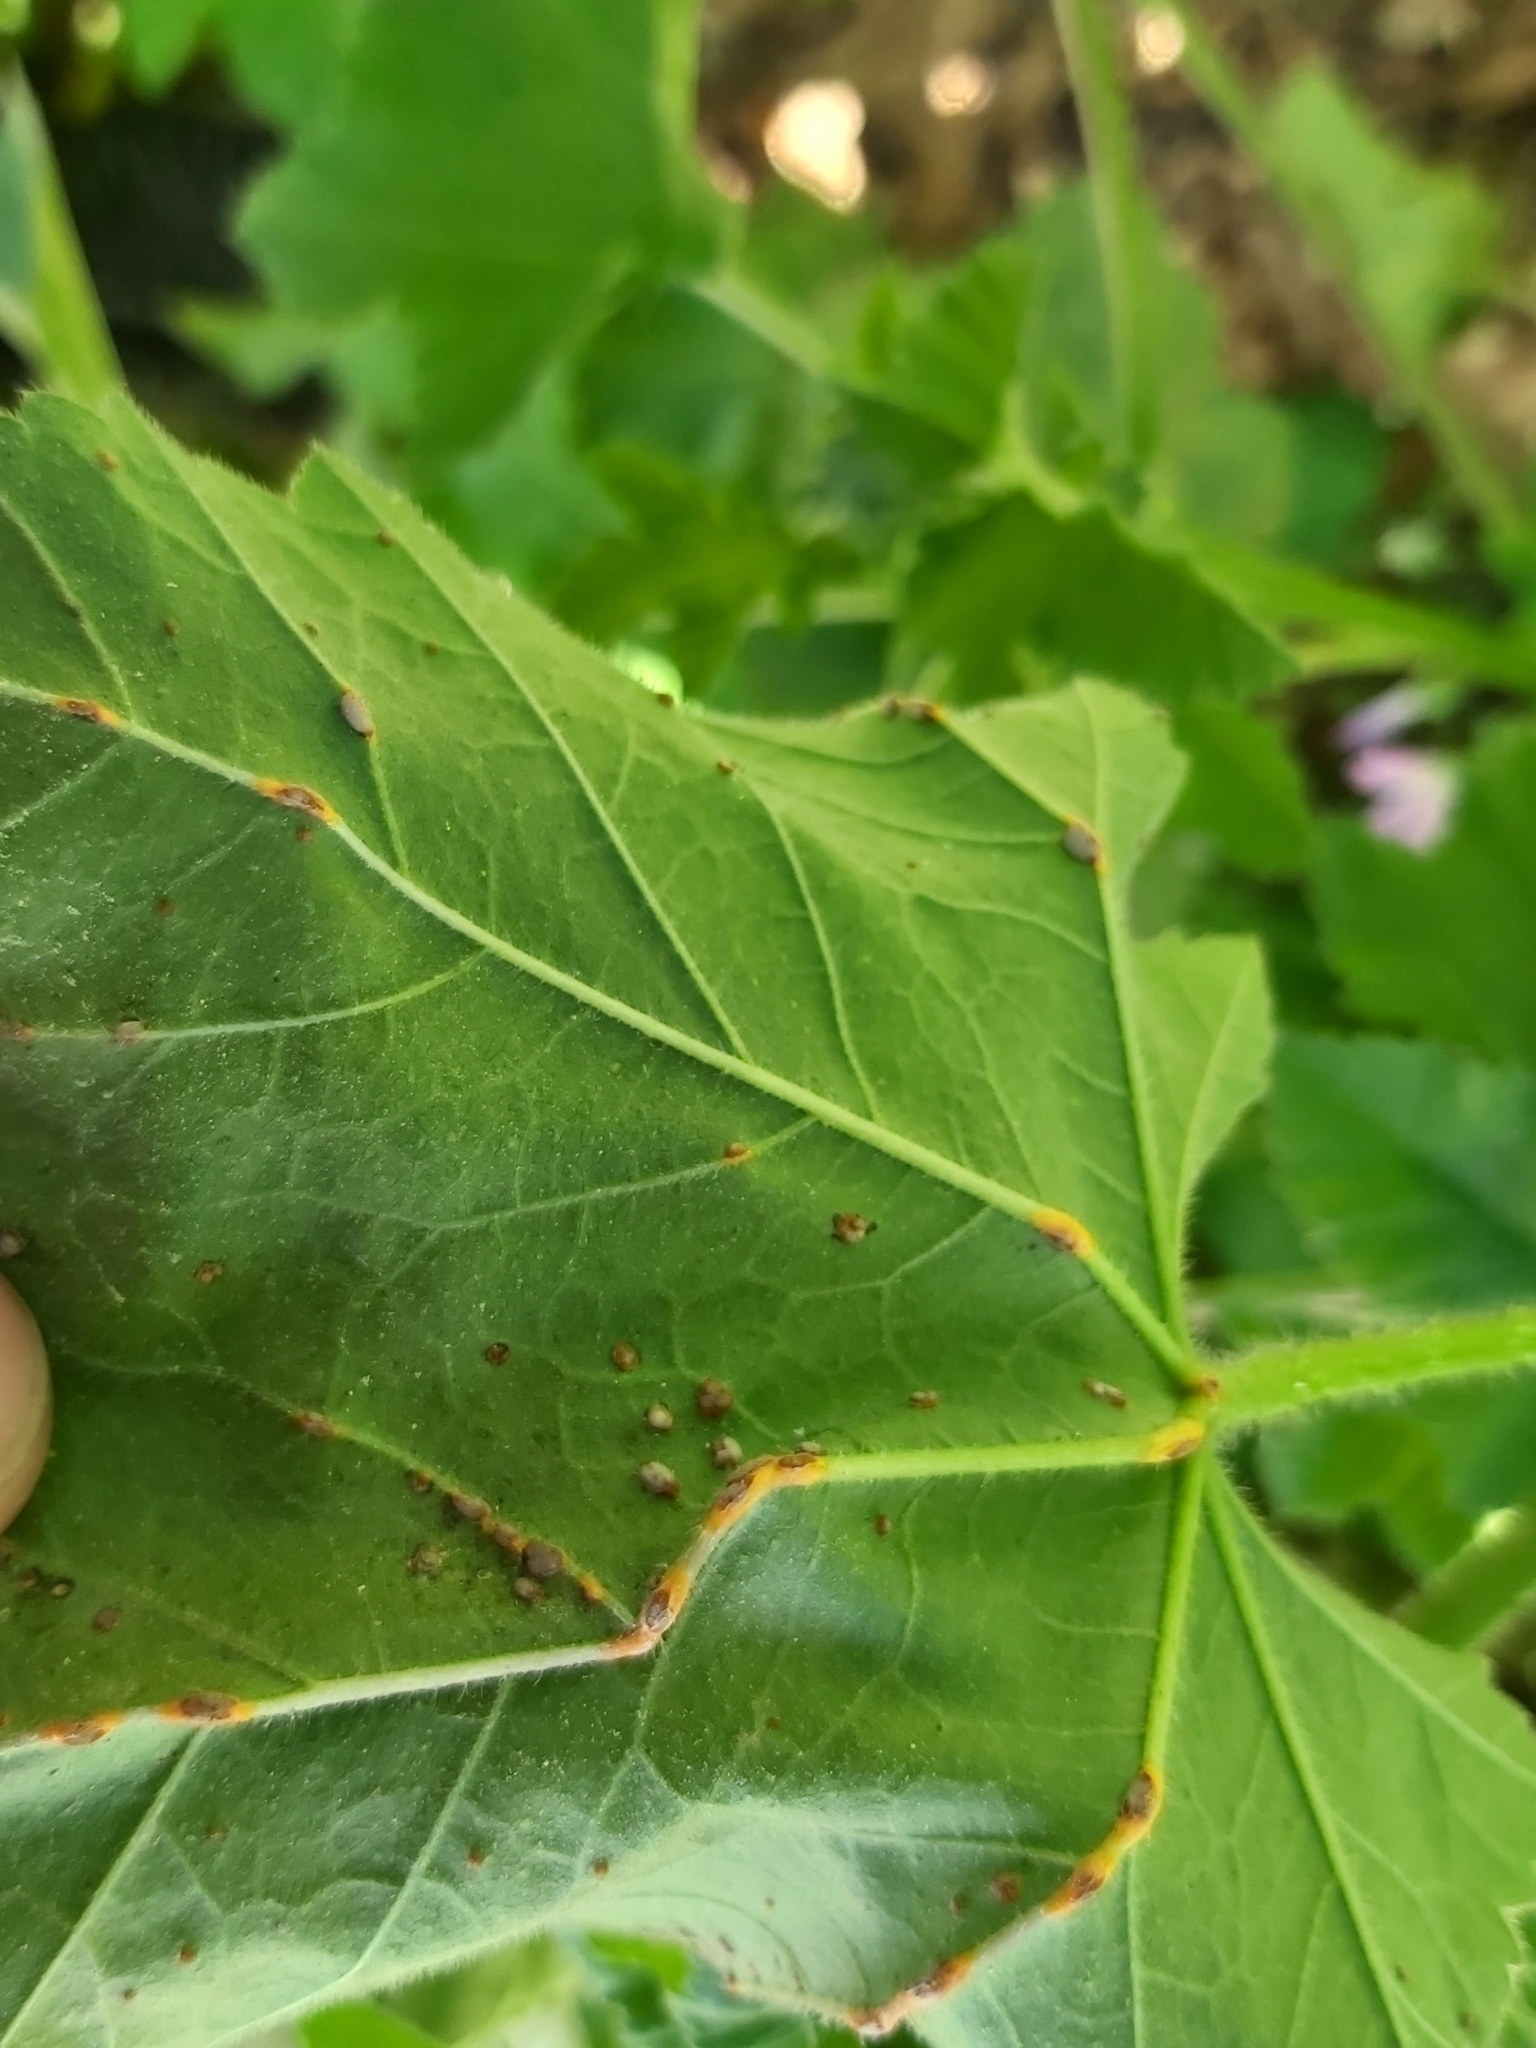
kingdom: Fungi
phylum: Basidiomycota
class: Pucciniomycetes
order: Pucciniales
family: Pucciniaceae
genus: Puccinia
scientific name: Puccinia malvacearum
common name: Hollyhock rust
